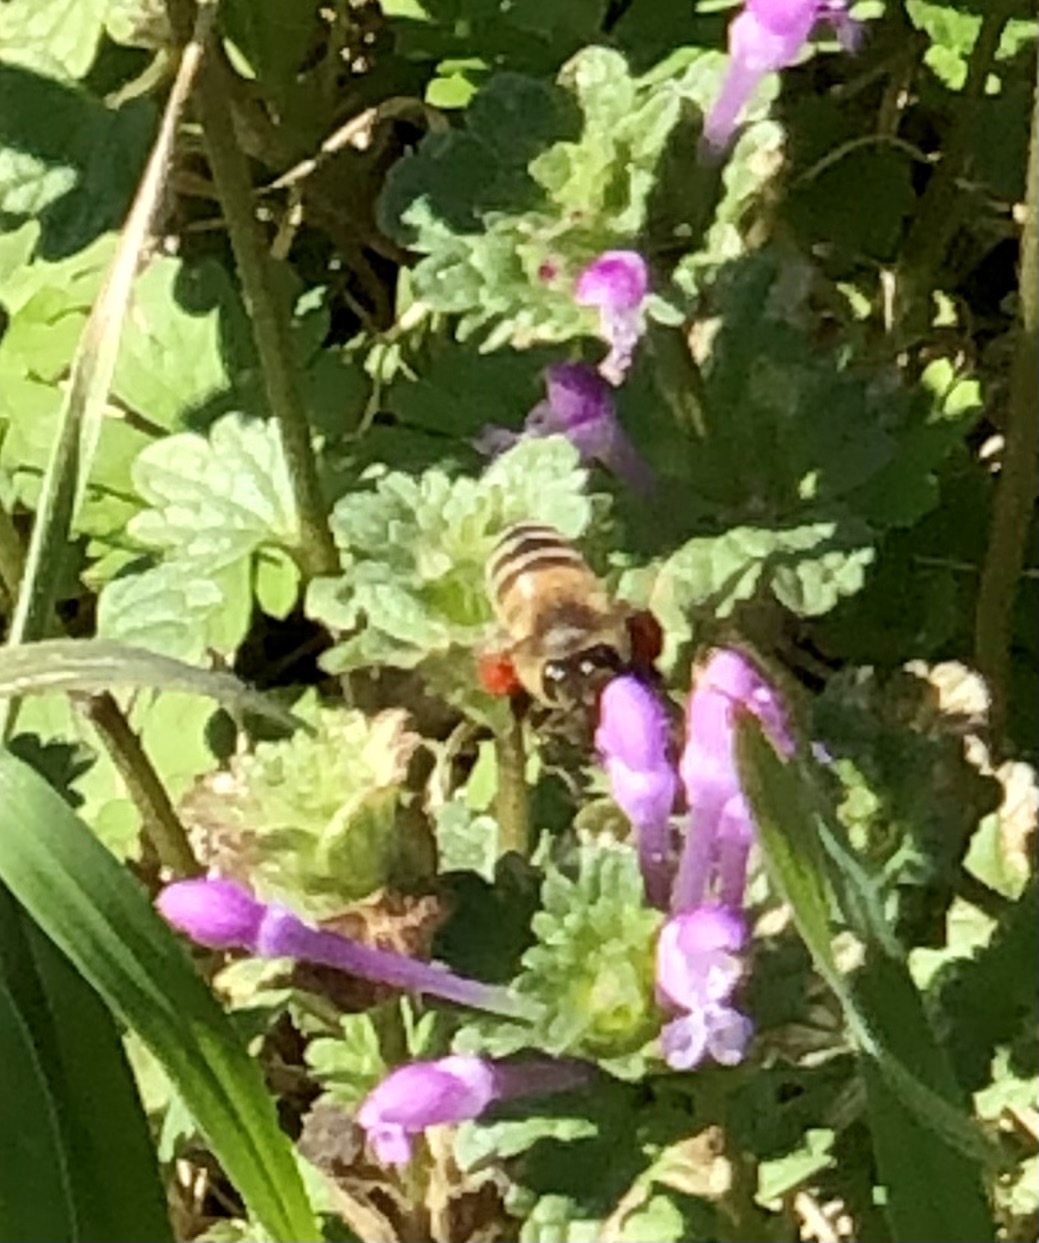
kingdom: Animalia
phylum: Arthropoda
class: Insecta
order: Hymenoptera
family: Apidae
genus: Apis
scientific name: Apis mellifera
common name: Honey bee
